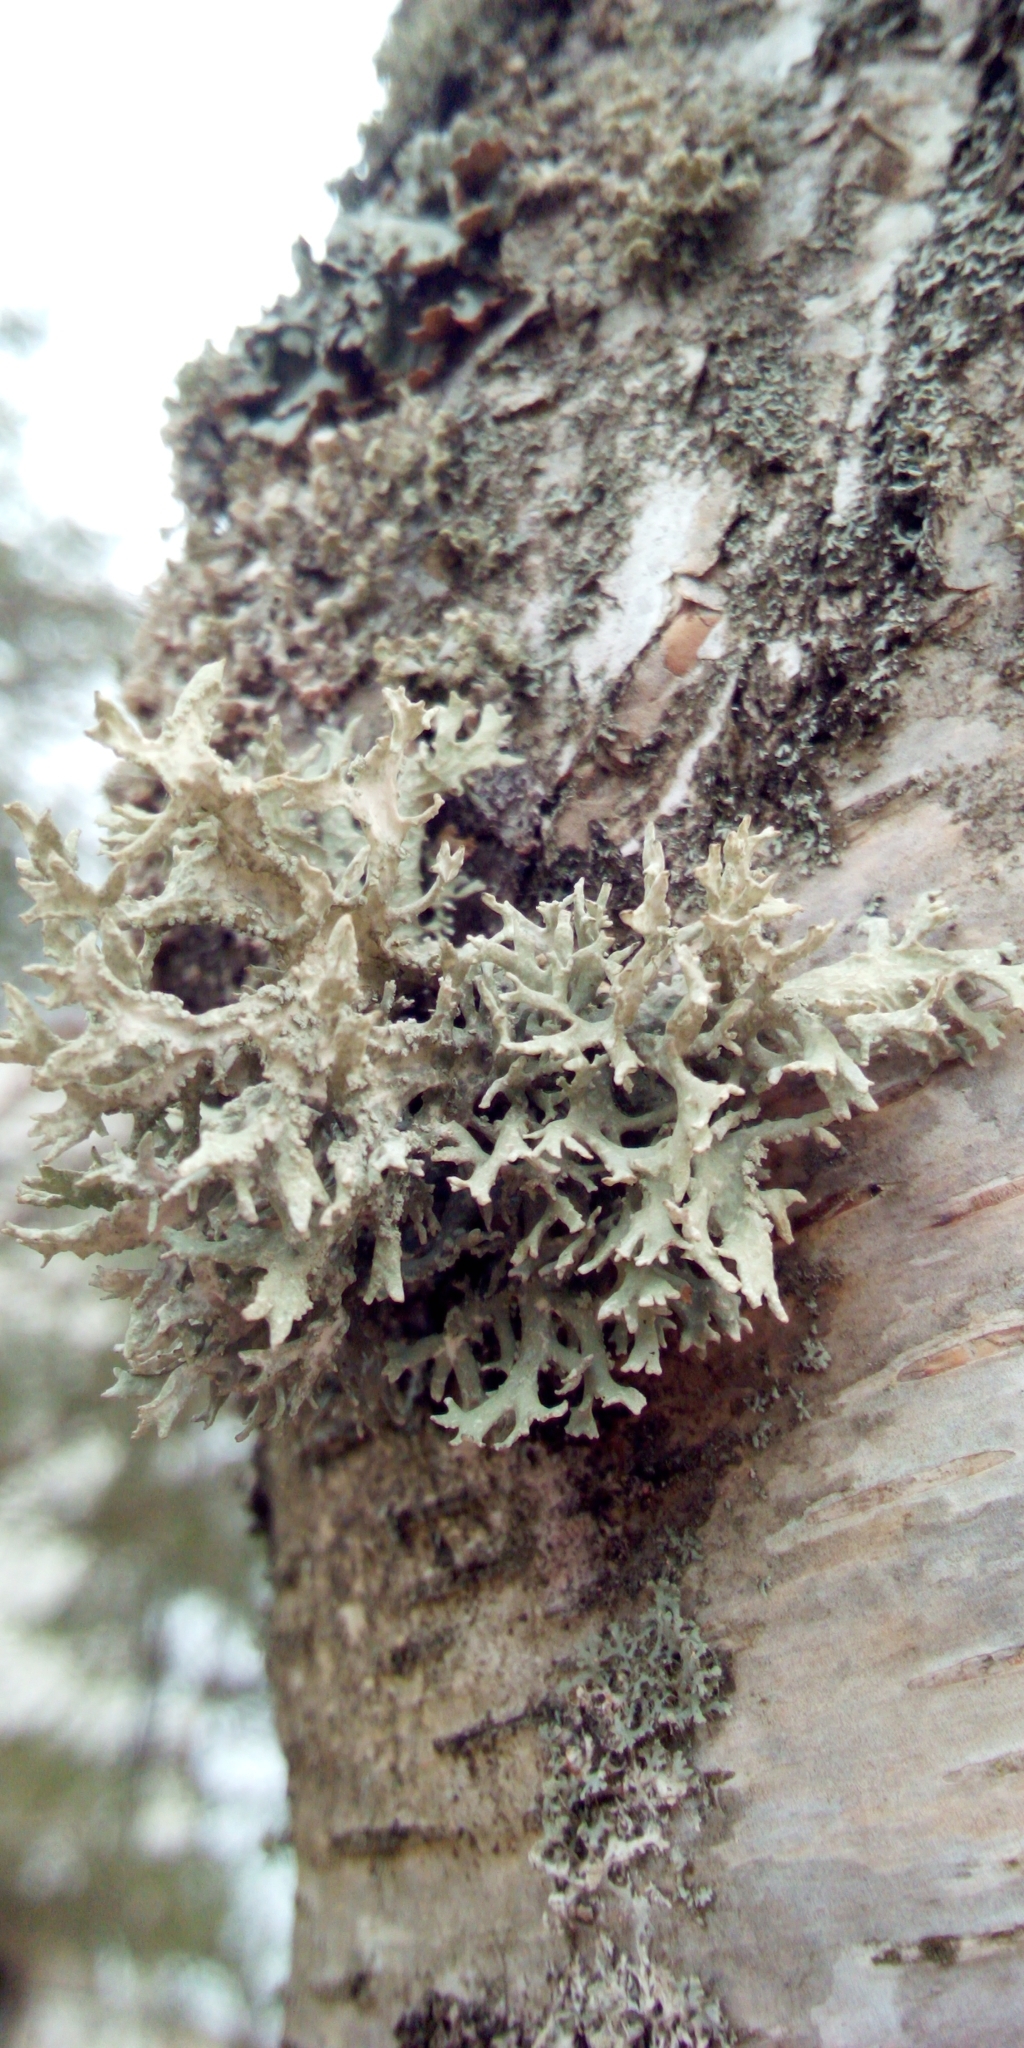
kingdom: Fungi
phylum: Ascomycota
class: Lecanoromycetes
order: Lecanorales
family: Parmeliaceae
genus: Evernia
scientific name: Evernia prunastri
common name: Oak moss
